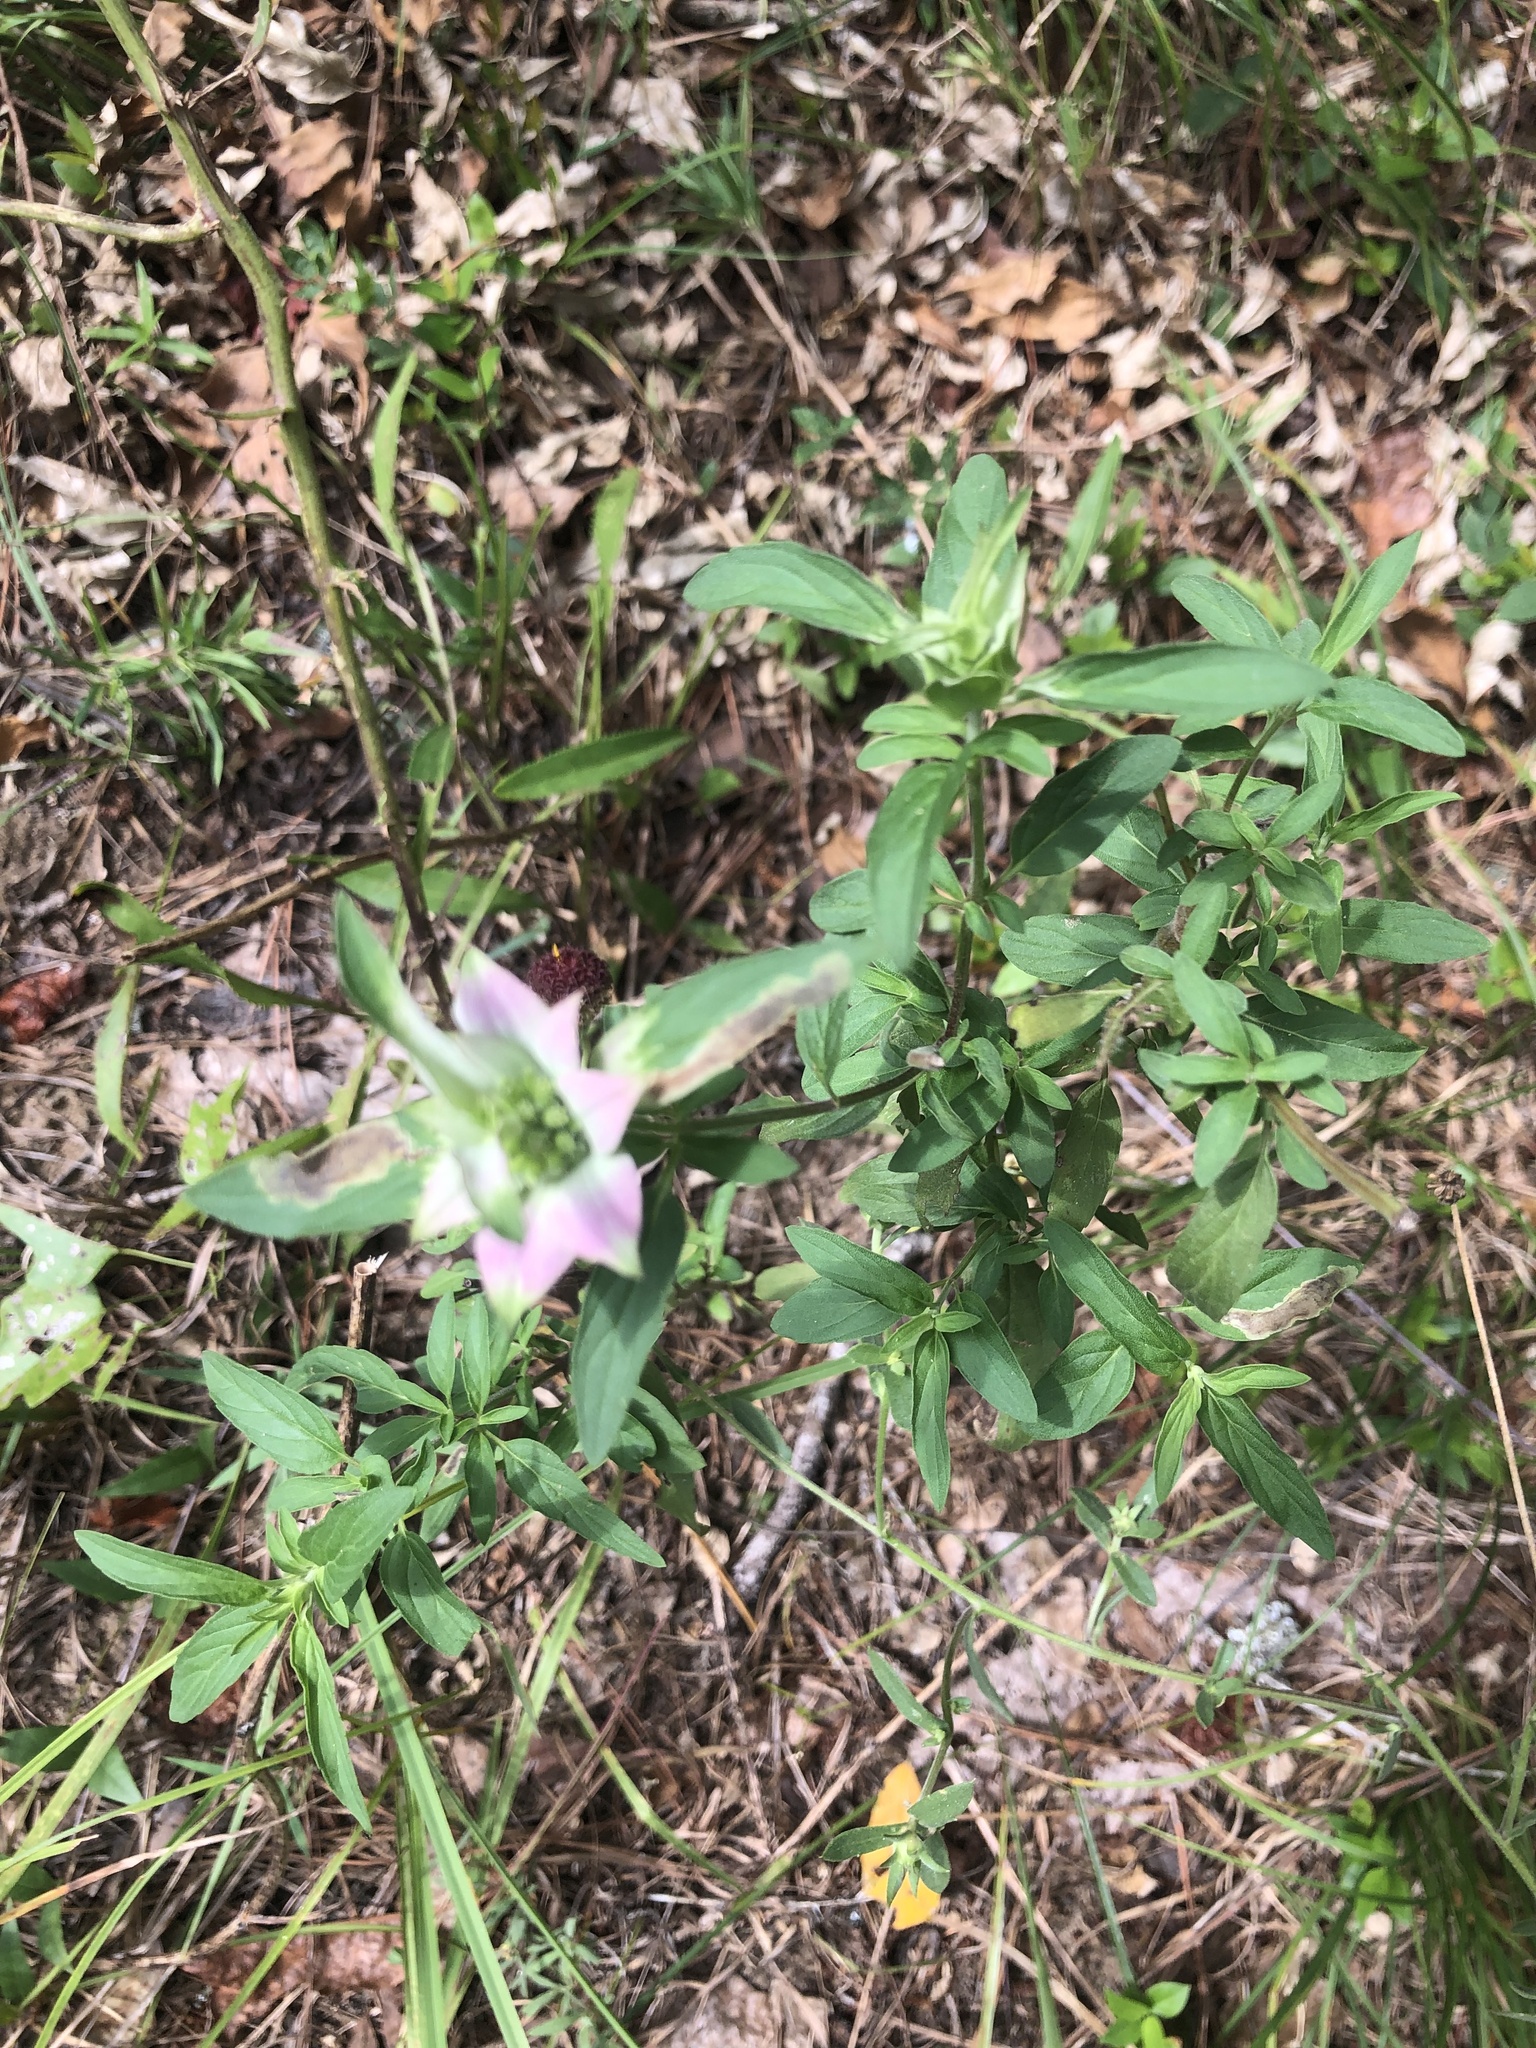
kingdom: Plantae
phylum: Tracheophyta
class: Magnoliopsida
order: Lamiales
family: Lamiaceae
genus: Monarda
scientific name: Monarda punctata
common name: Dotted monarda
